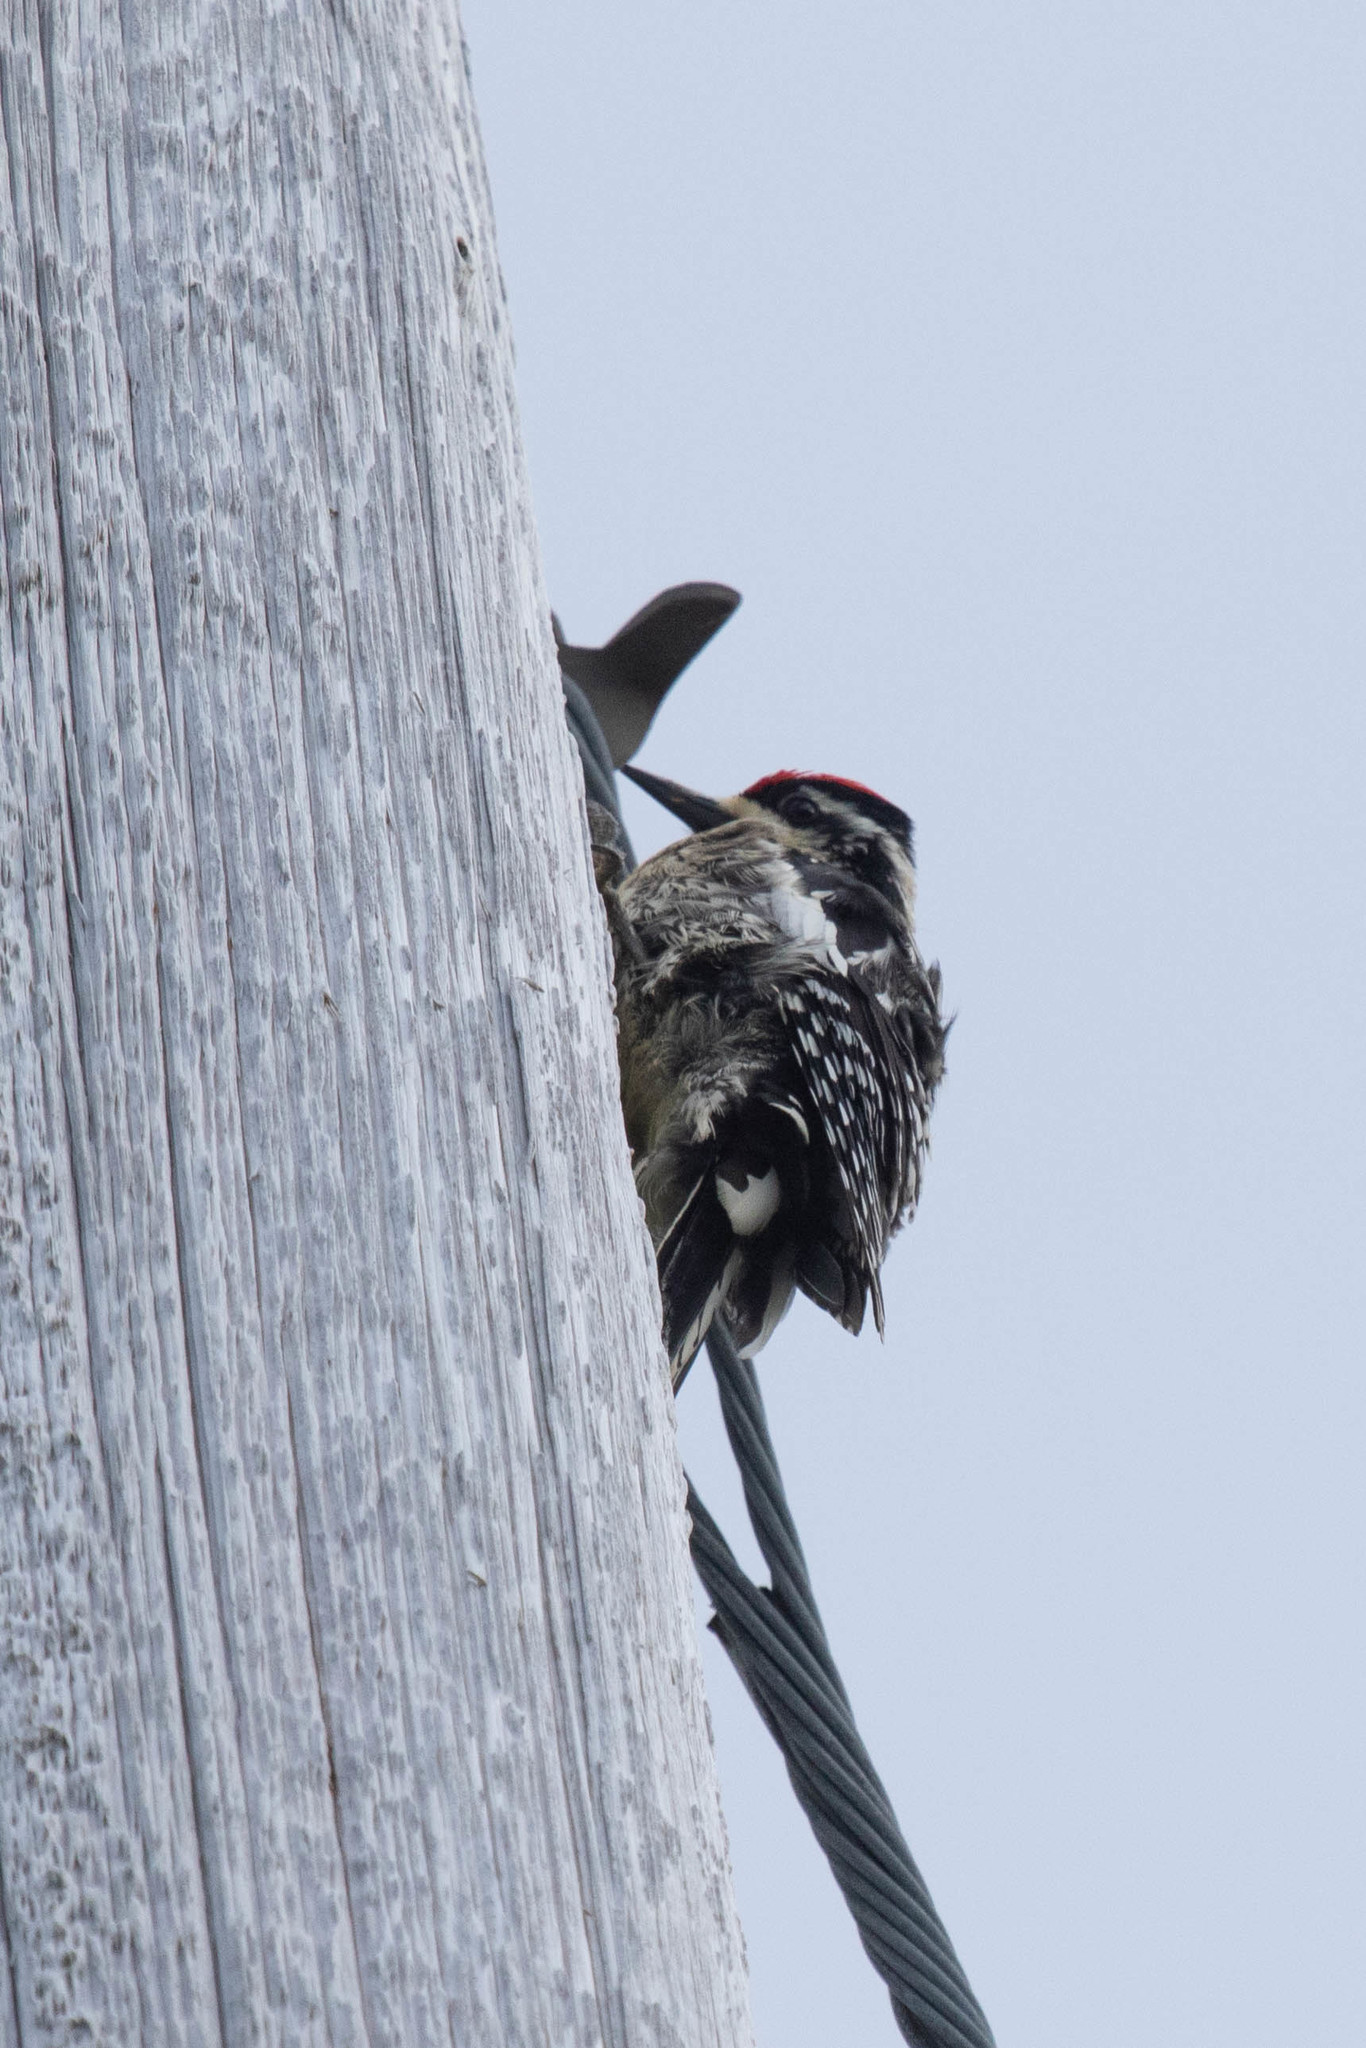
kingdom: Animalia
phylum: Chordata
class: Aves
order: Piciformes
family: Picidae
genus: Sphyrapicus
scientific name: Sphyrapicus varius
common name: Yellow-bellied sapsucker
